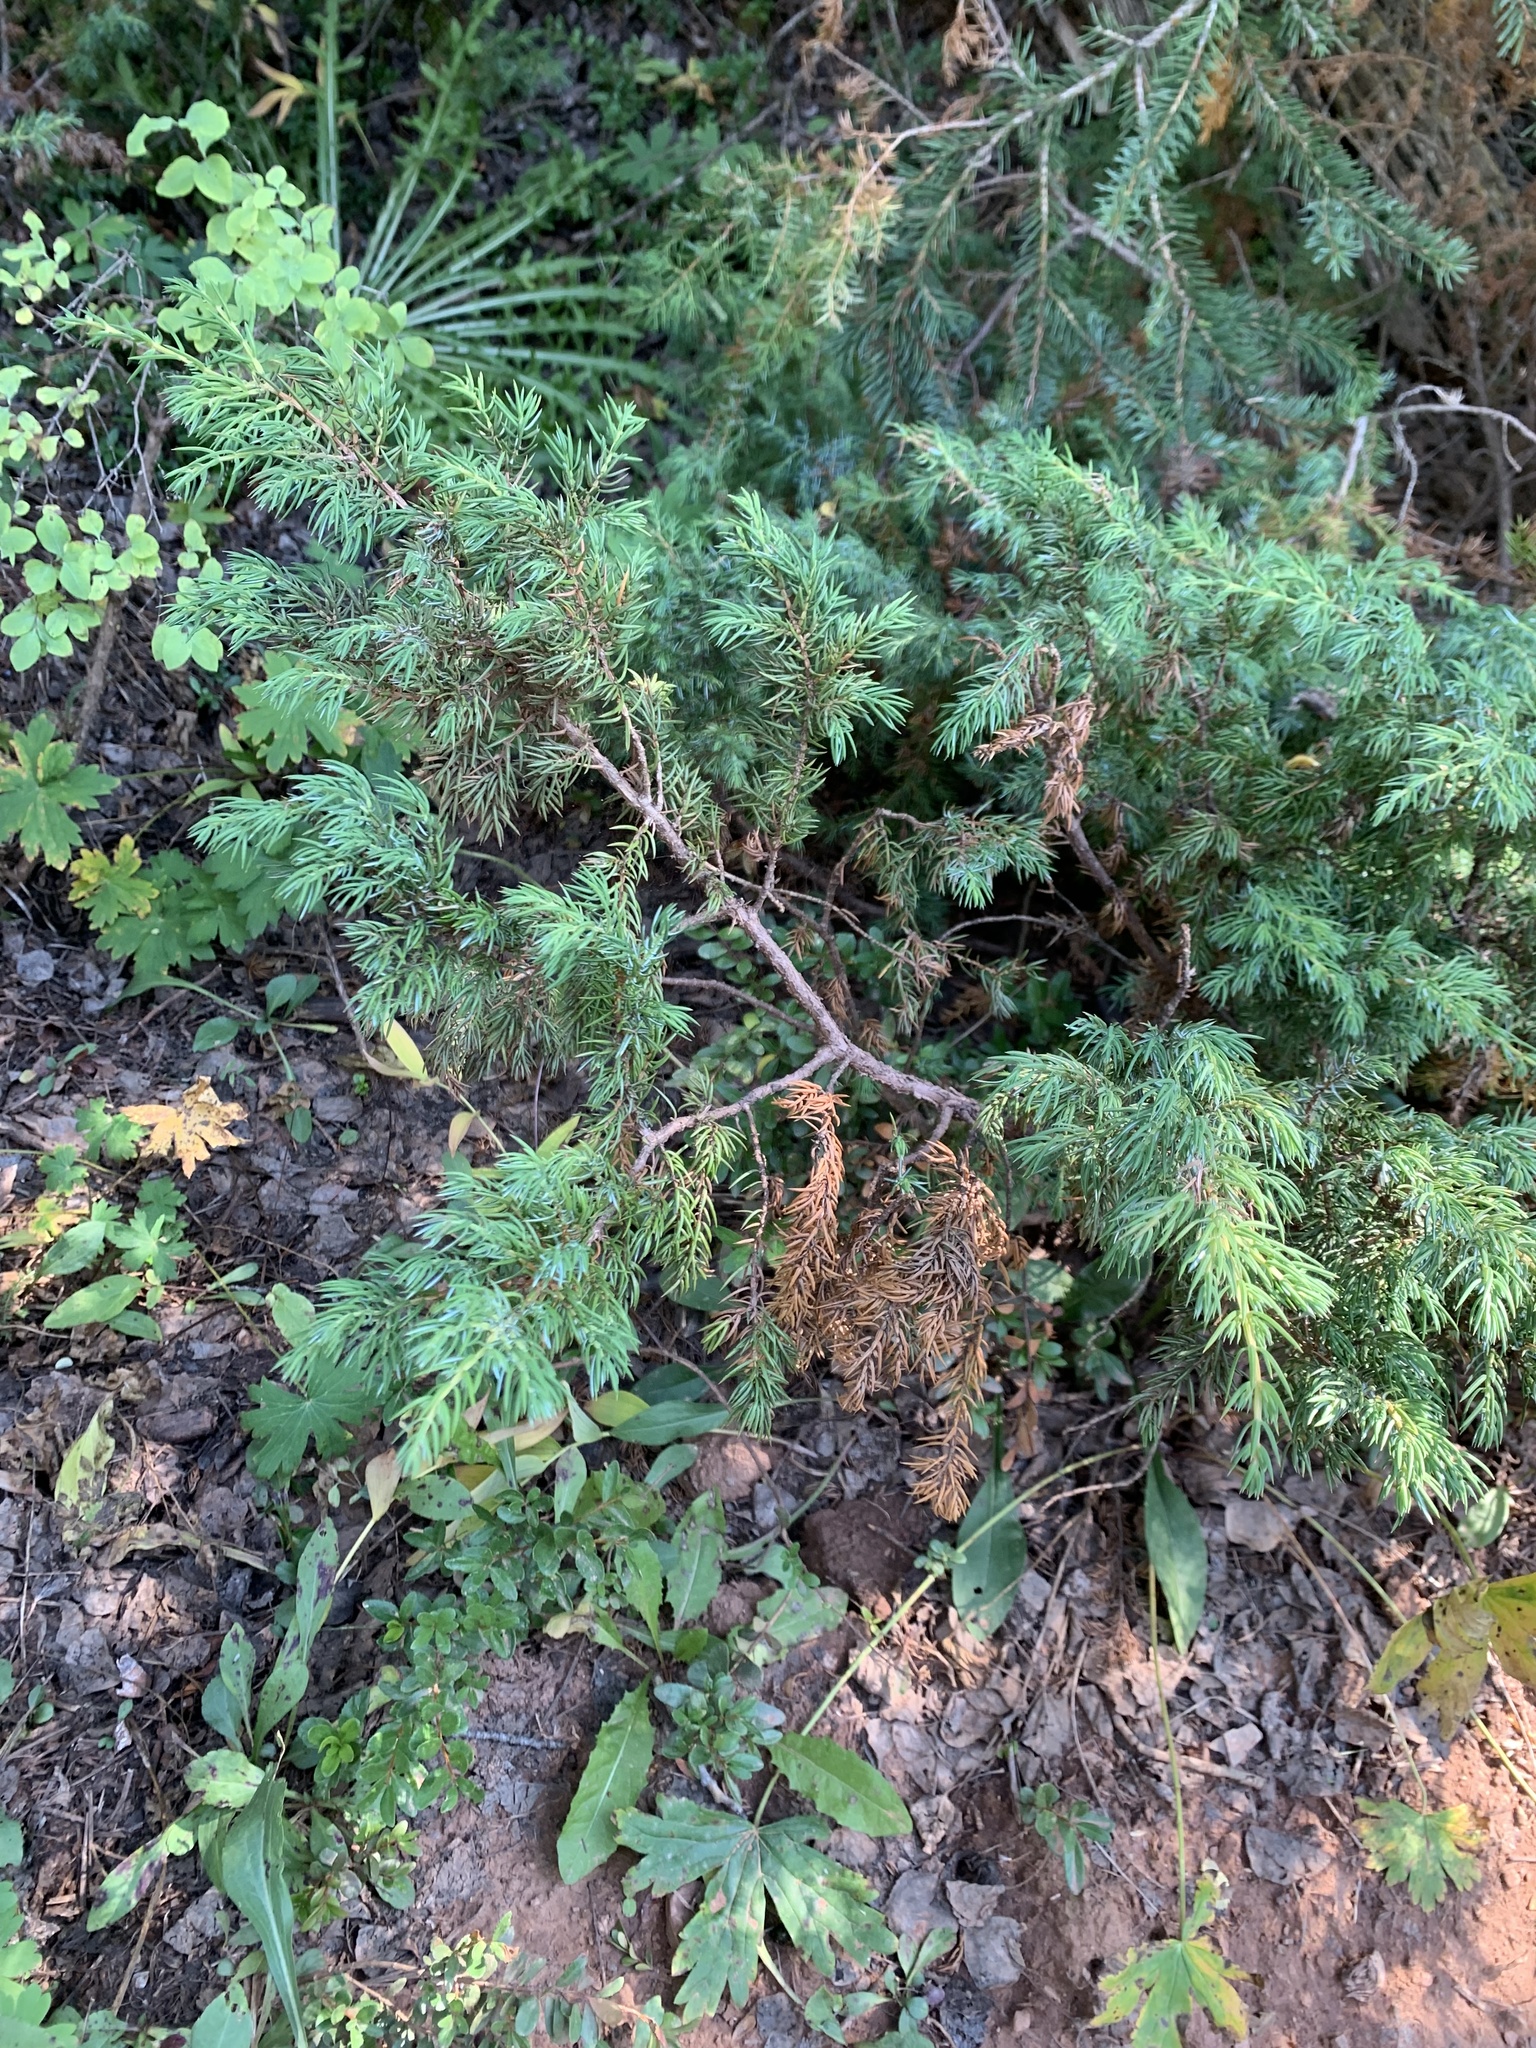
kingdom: Plantae
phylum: Tracheophyta
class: Pinopsida
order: Pinales
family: Cupressaceae
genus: Juniperus
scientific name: Juniperus communis
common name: Common juniper
